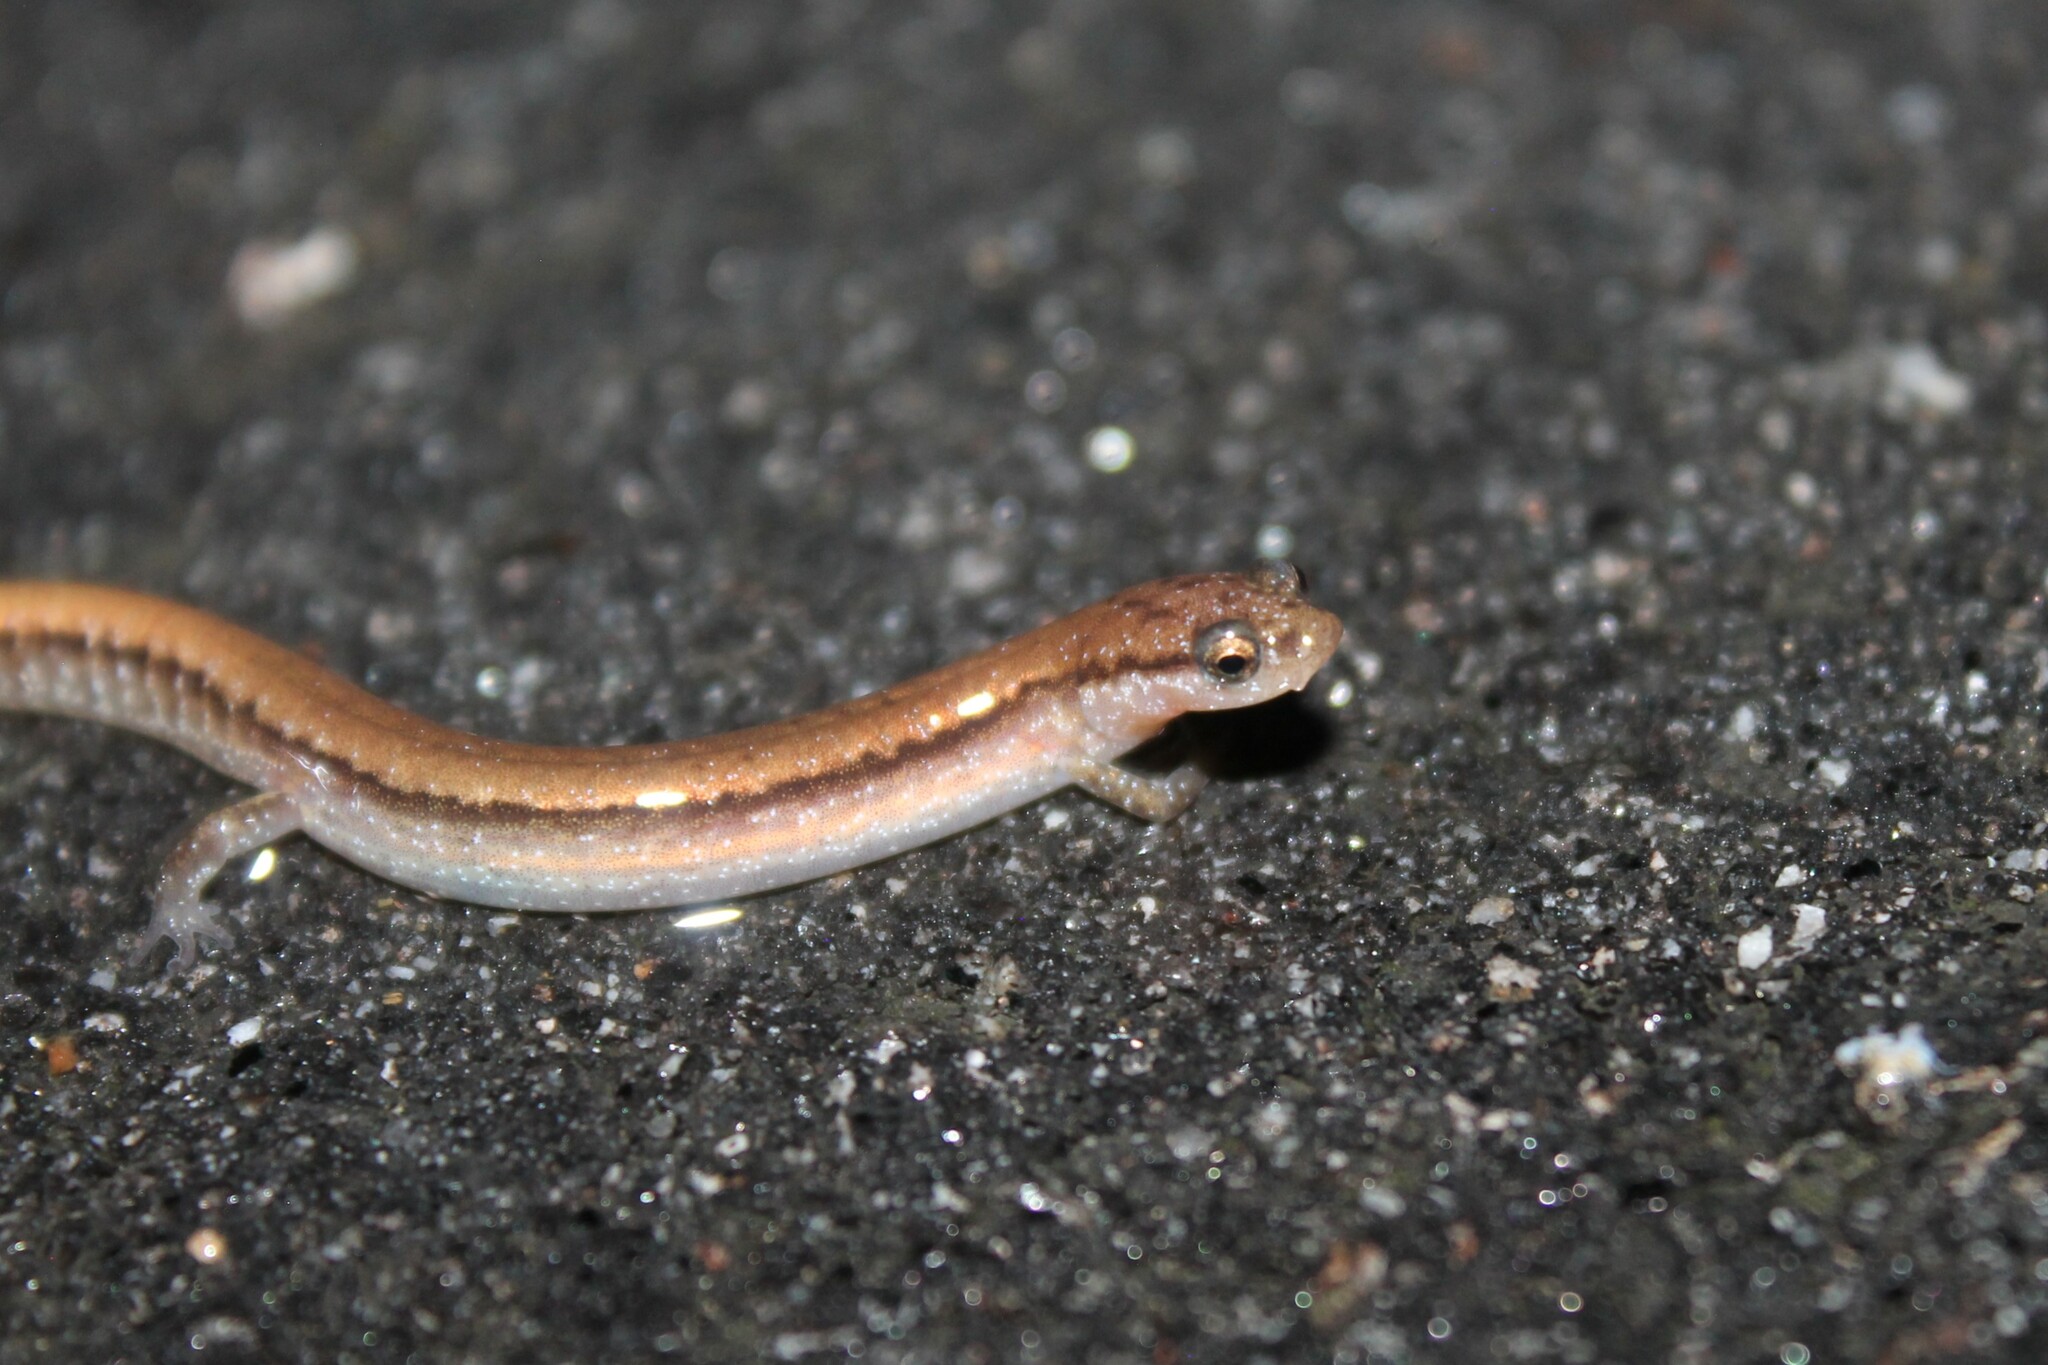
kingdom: Animalia
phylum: Chordata
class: Amphibia
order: Caudata
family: Plethodontidae
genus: Eurycea
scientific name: Eurycea quadridigitata
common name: Dwarf salamander
